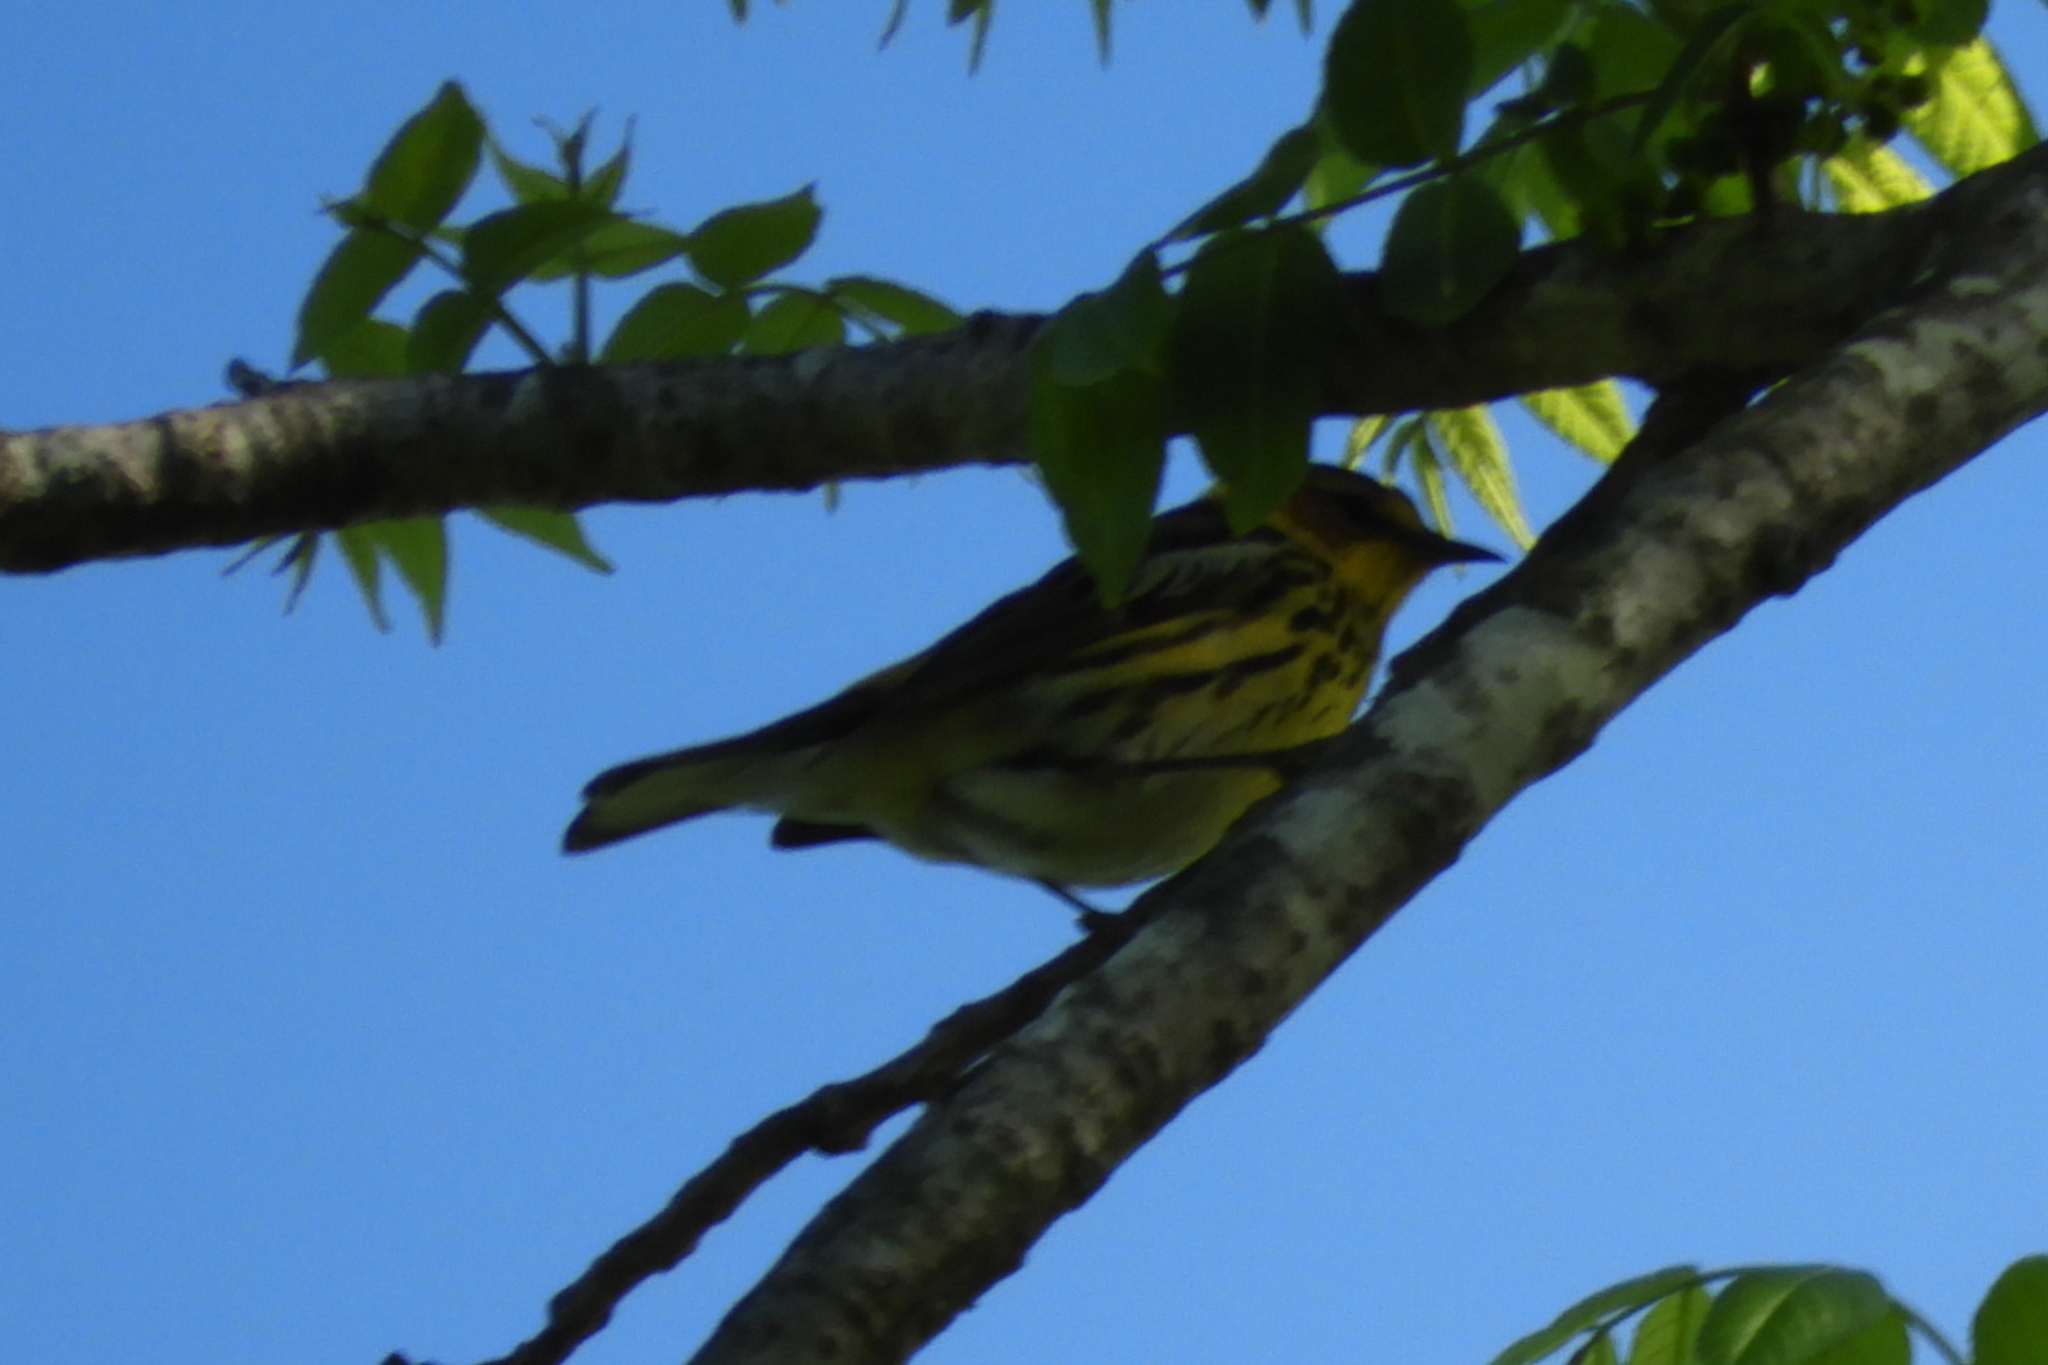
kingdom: Animalia
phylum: Chordata
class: Aves
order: Passeriformes
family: Parulidae
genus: Setophaga
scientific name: Setophaga tigrina
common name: Cape may warbler
